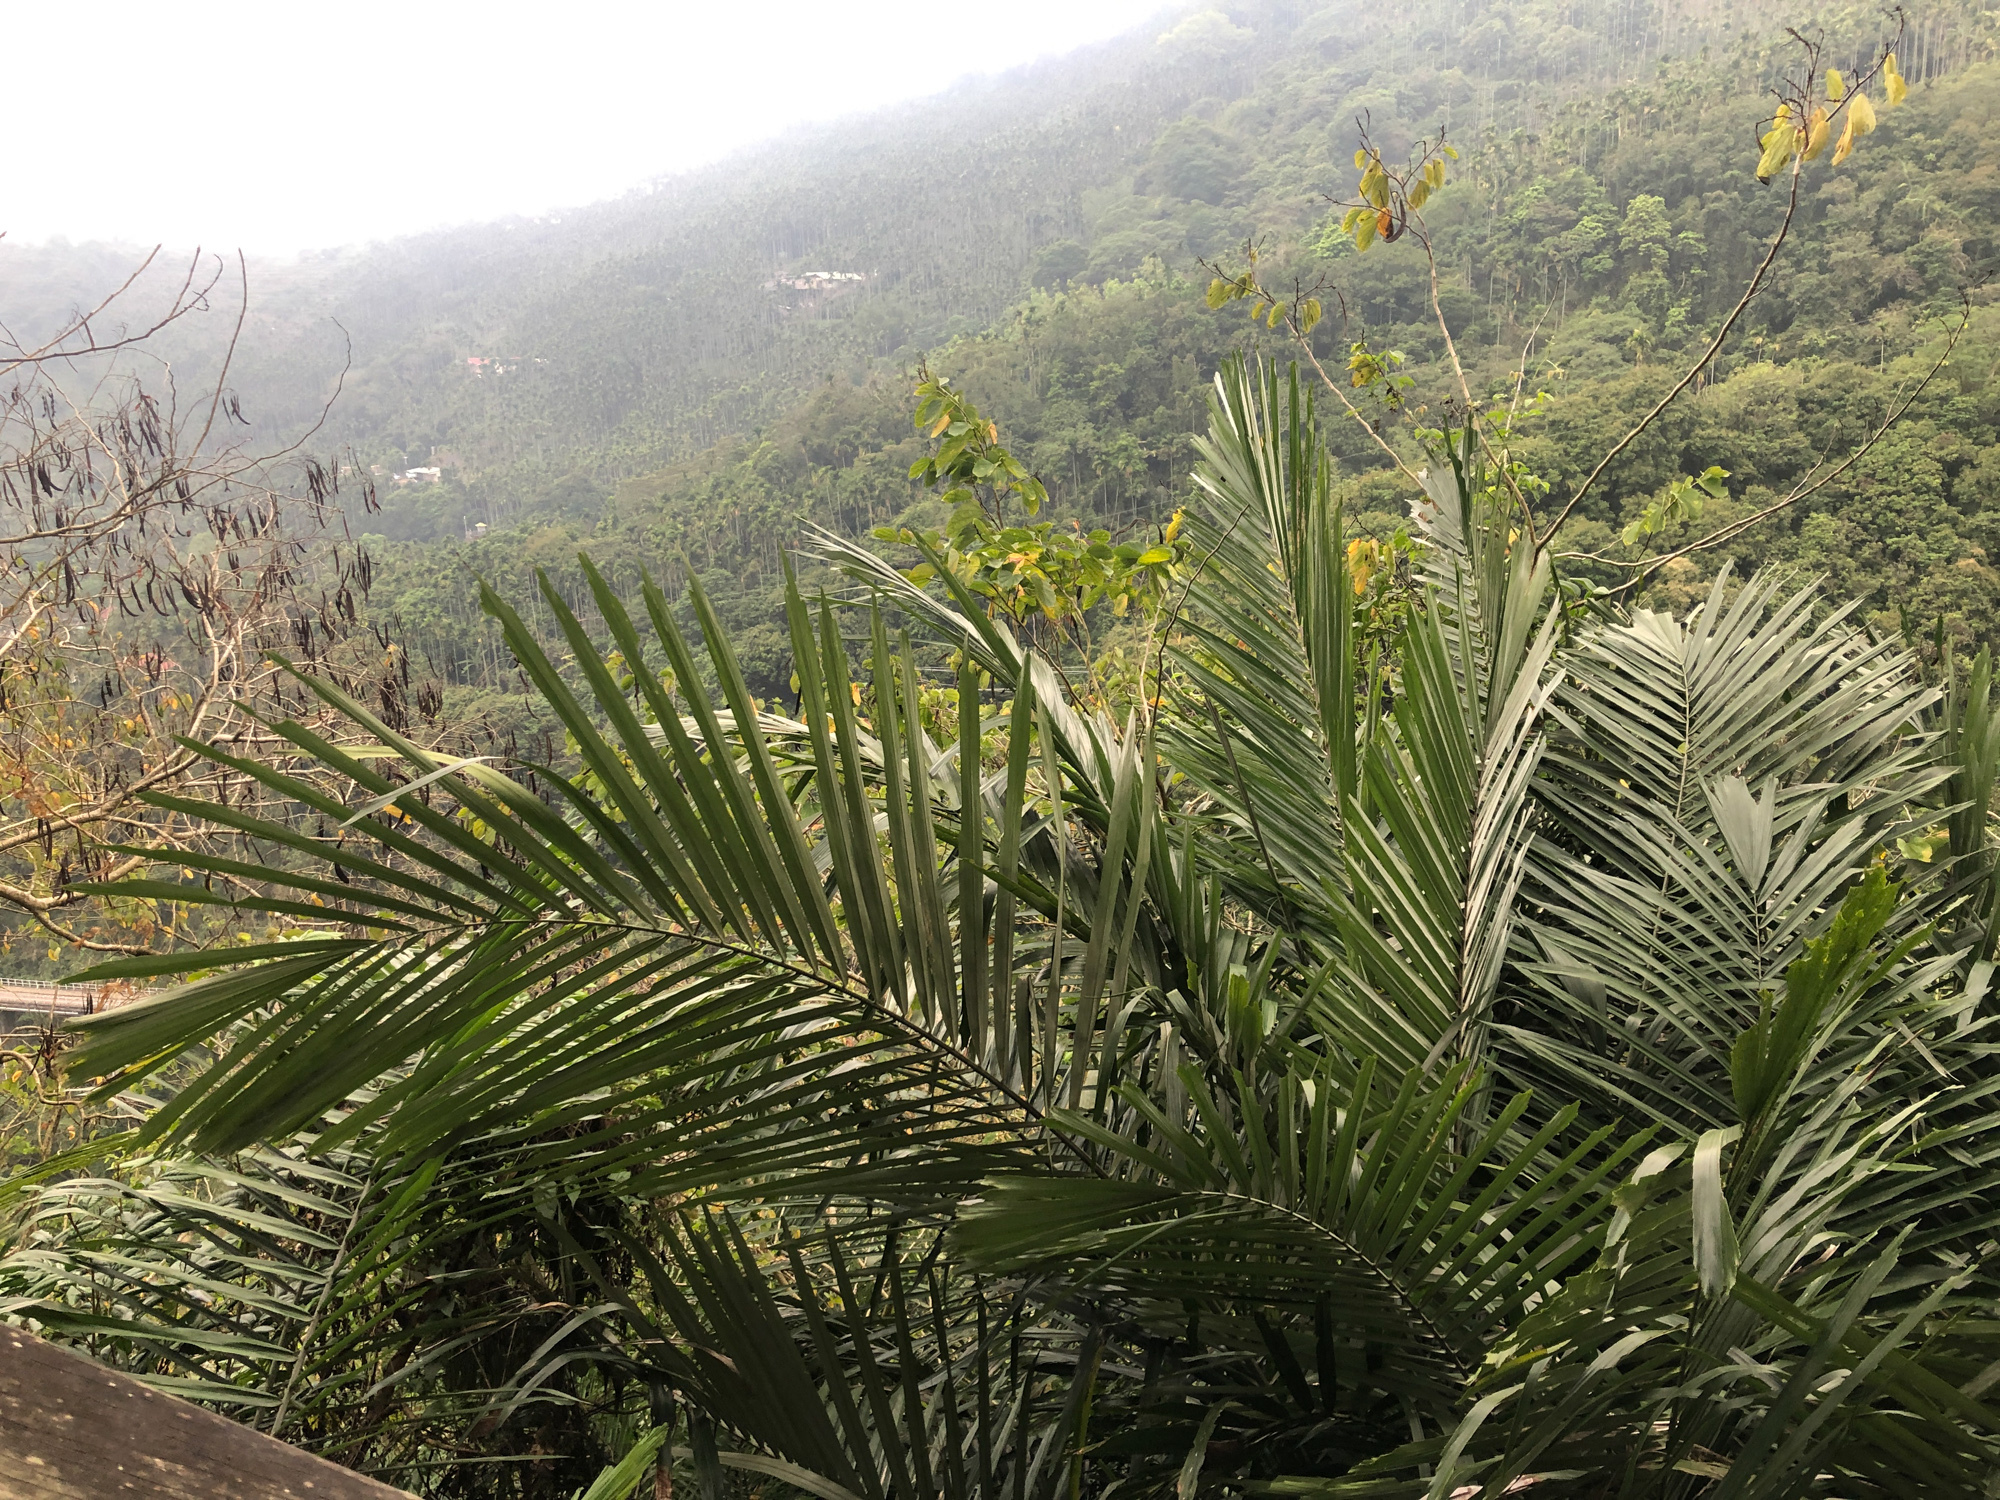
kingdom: Plantae
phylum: Tracheophyta
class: Liliopsida
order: Arecales
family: Arecaceae
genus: Arenga
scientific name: Arenga engleri
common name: Formosan sugar palm
